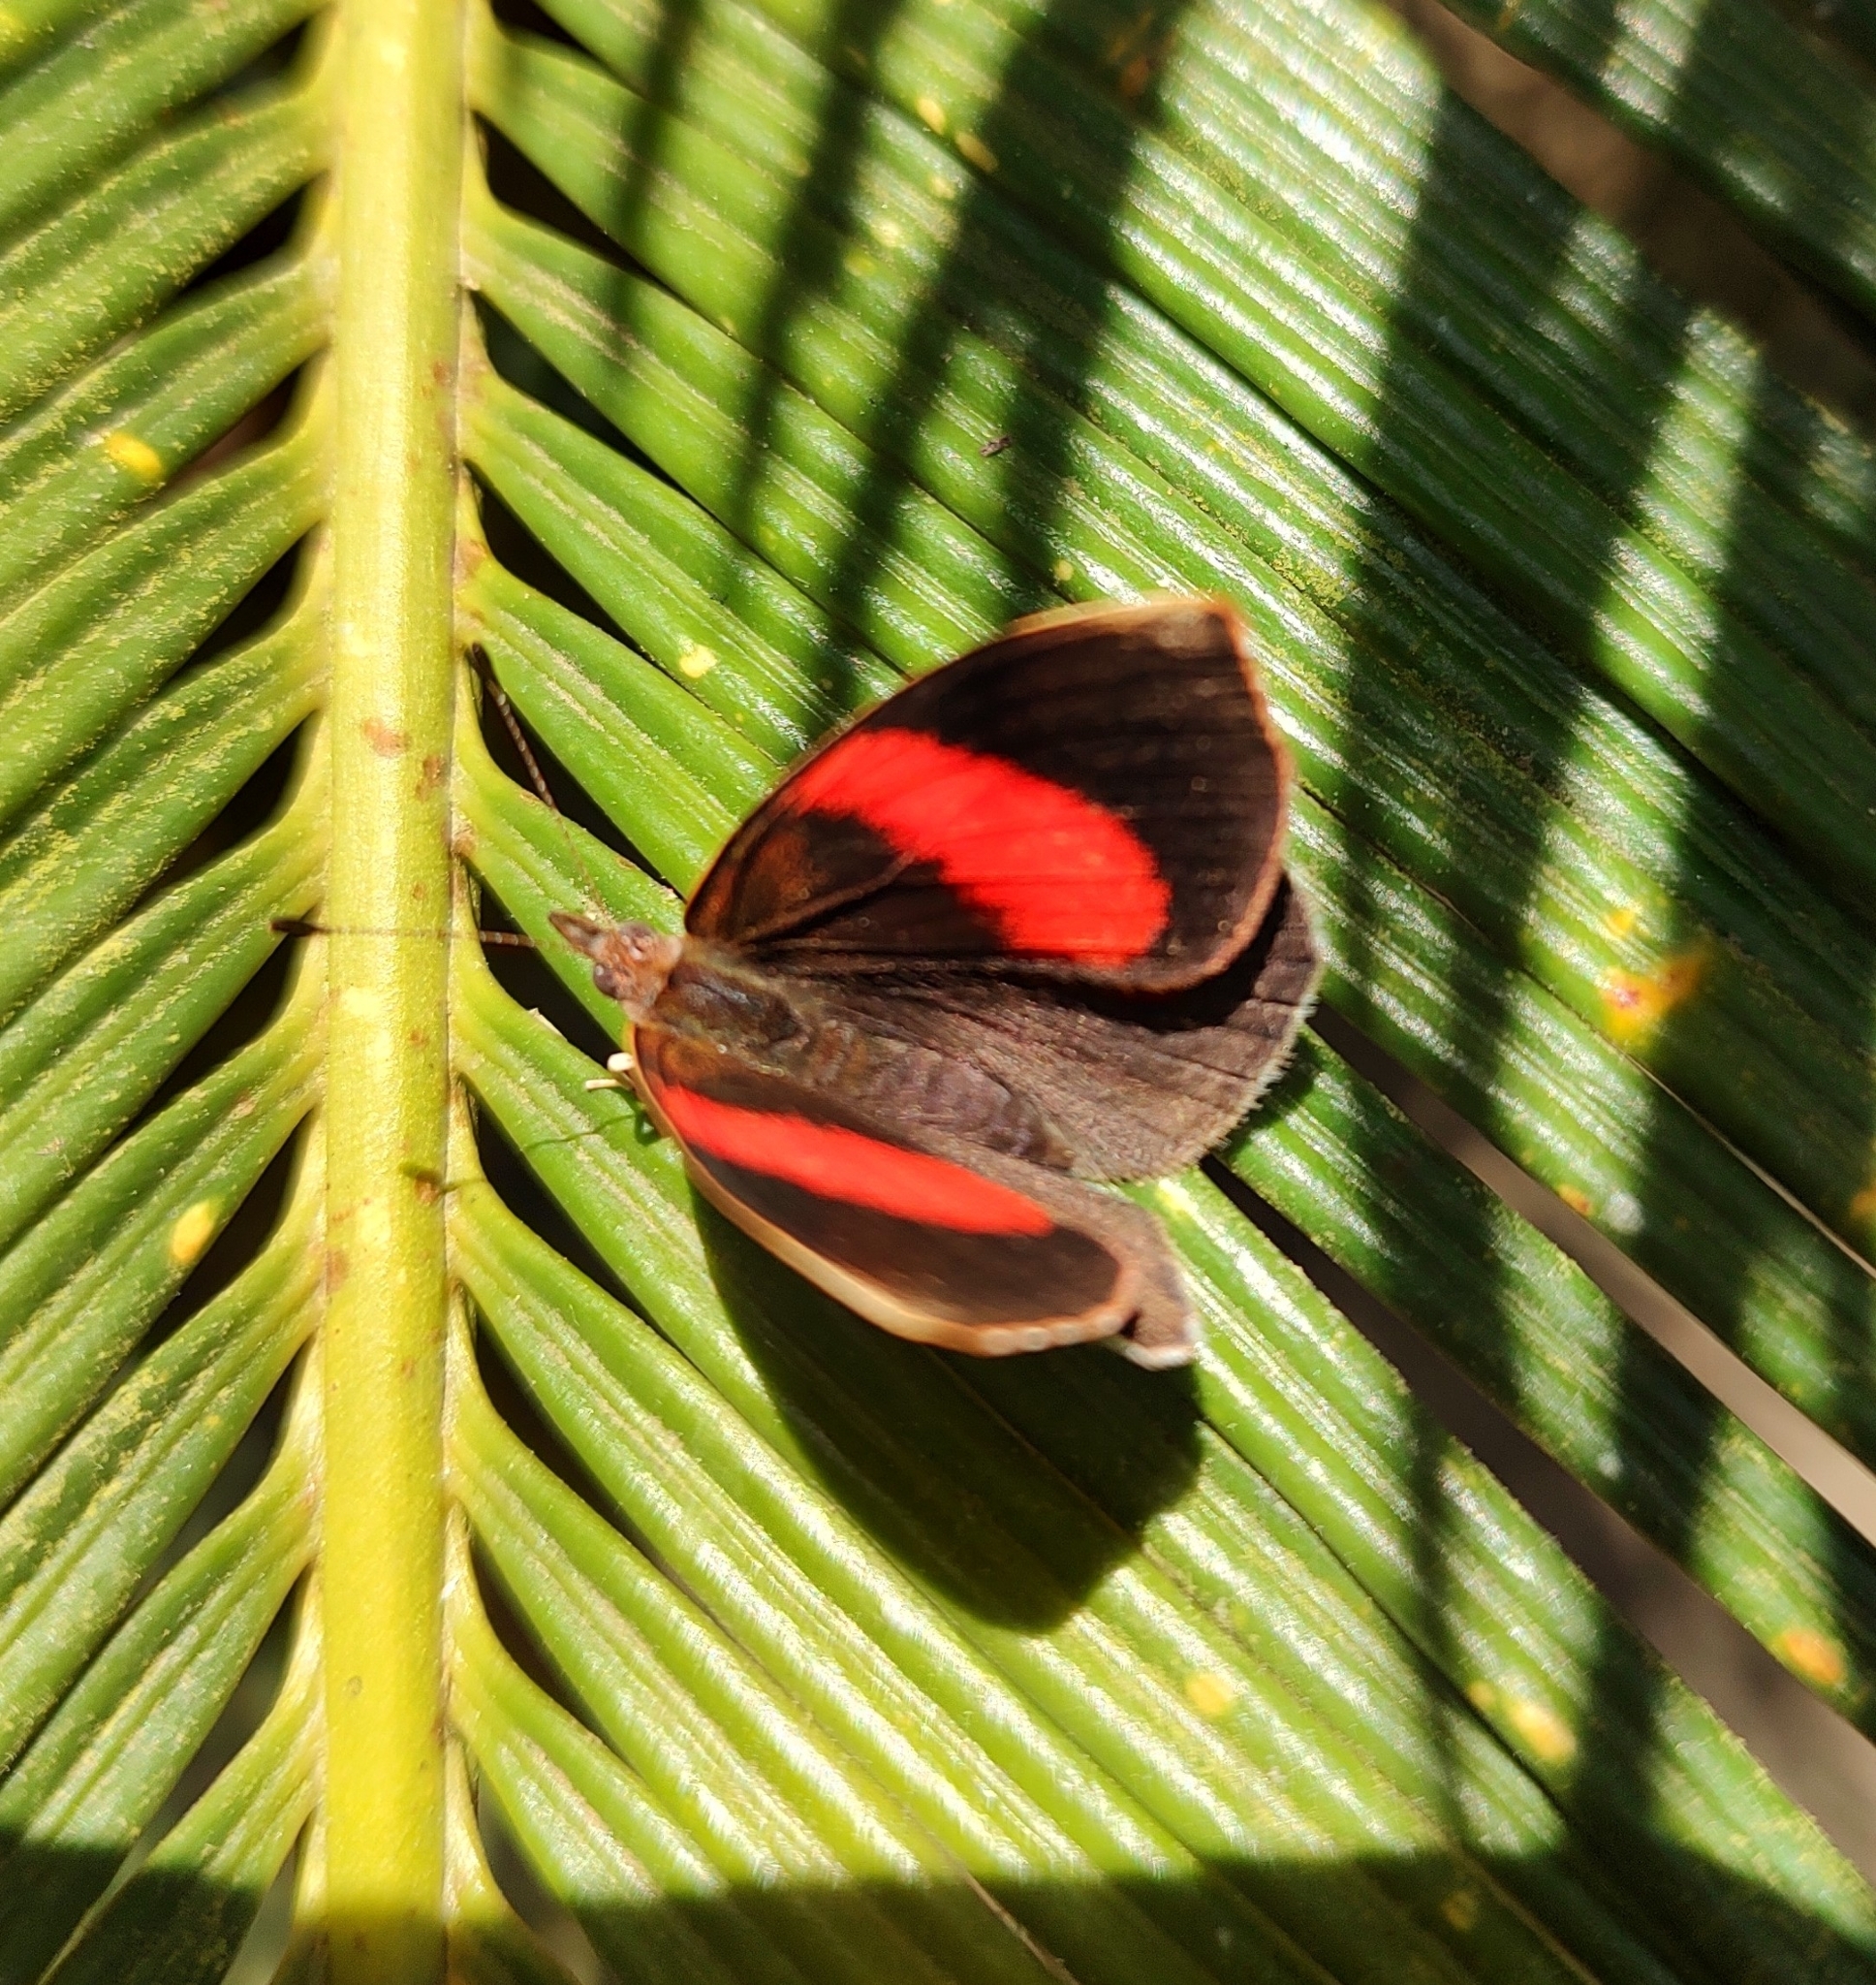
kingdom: Animalia
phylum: Arthropoda
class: Insecta
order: Lepidoptera
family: Nymphalidae
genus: Haematera
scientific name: Haematera pyrame
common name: Blind eighty-eight
